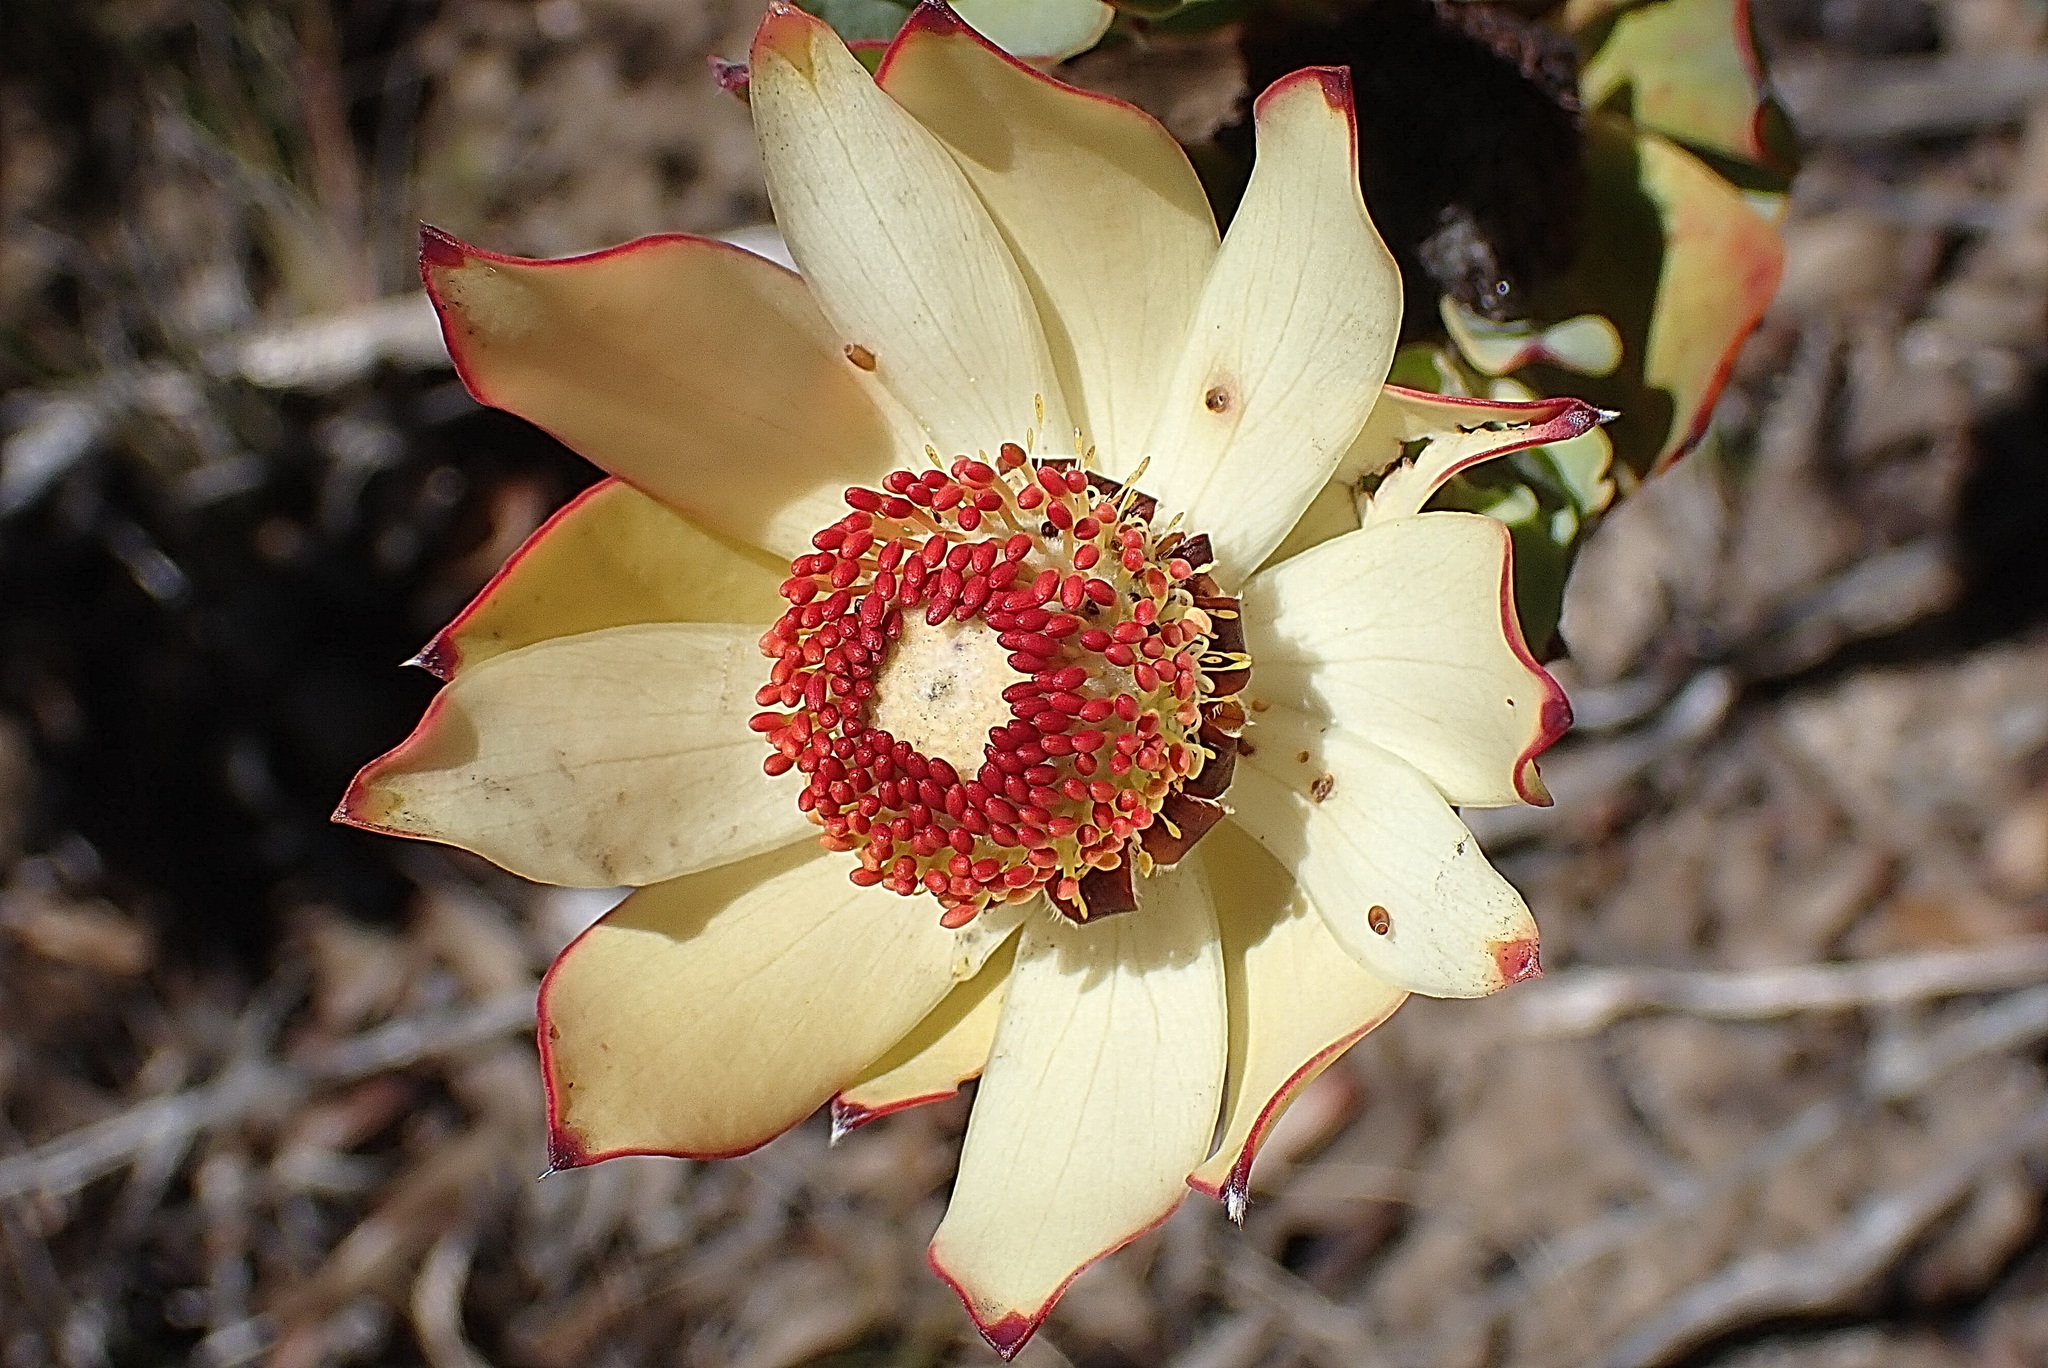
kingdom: Plantae
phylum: Tracheophyta
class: Magnoliopsida
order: Proteales
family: Proteaceae
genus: Leucadendron
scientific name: Leucadendron procerum
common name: Ivory conebush
